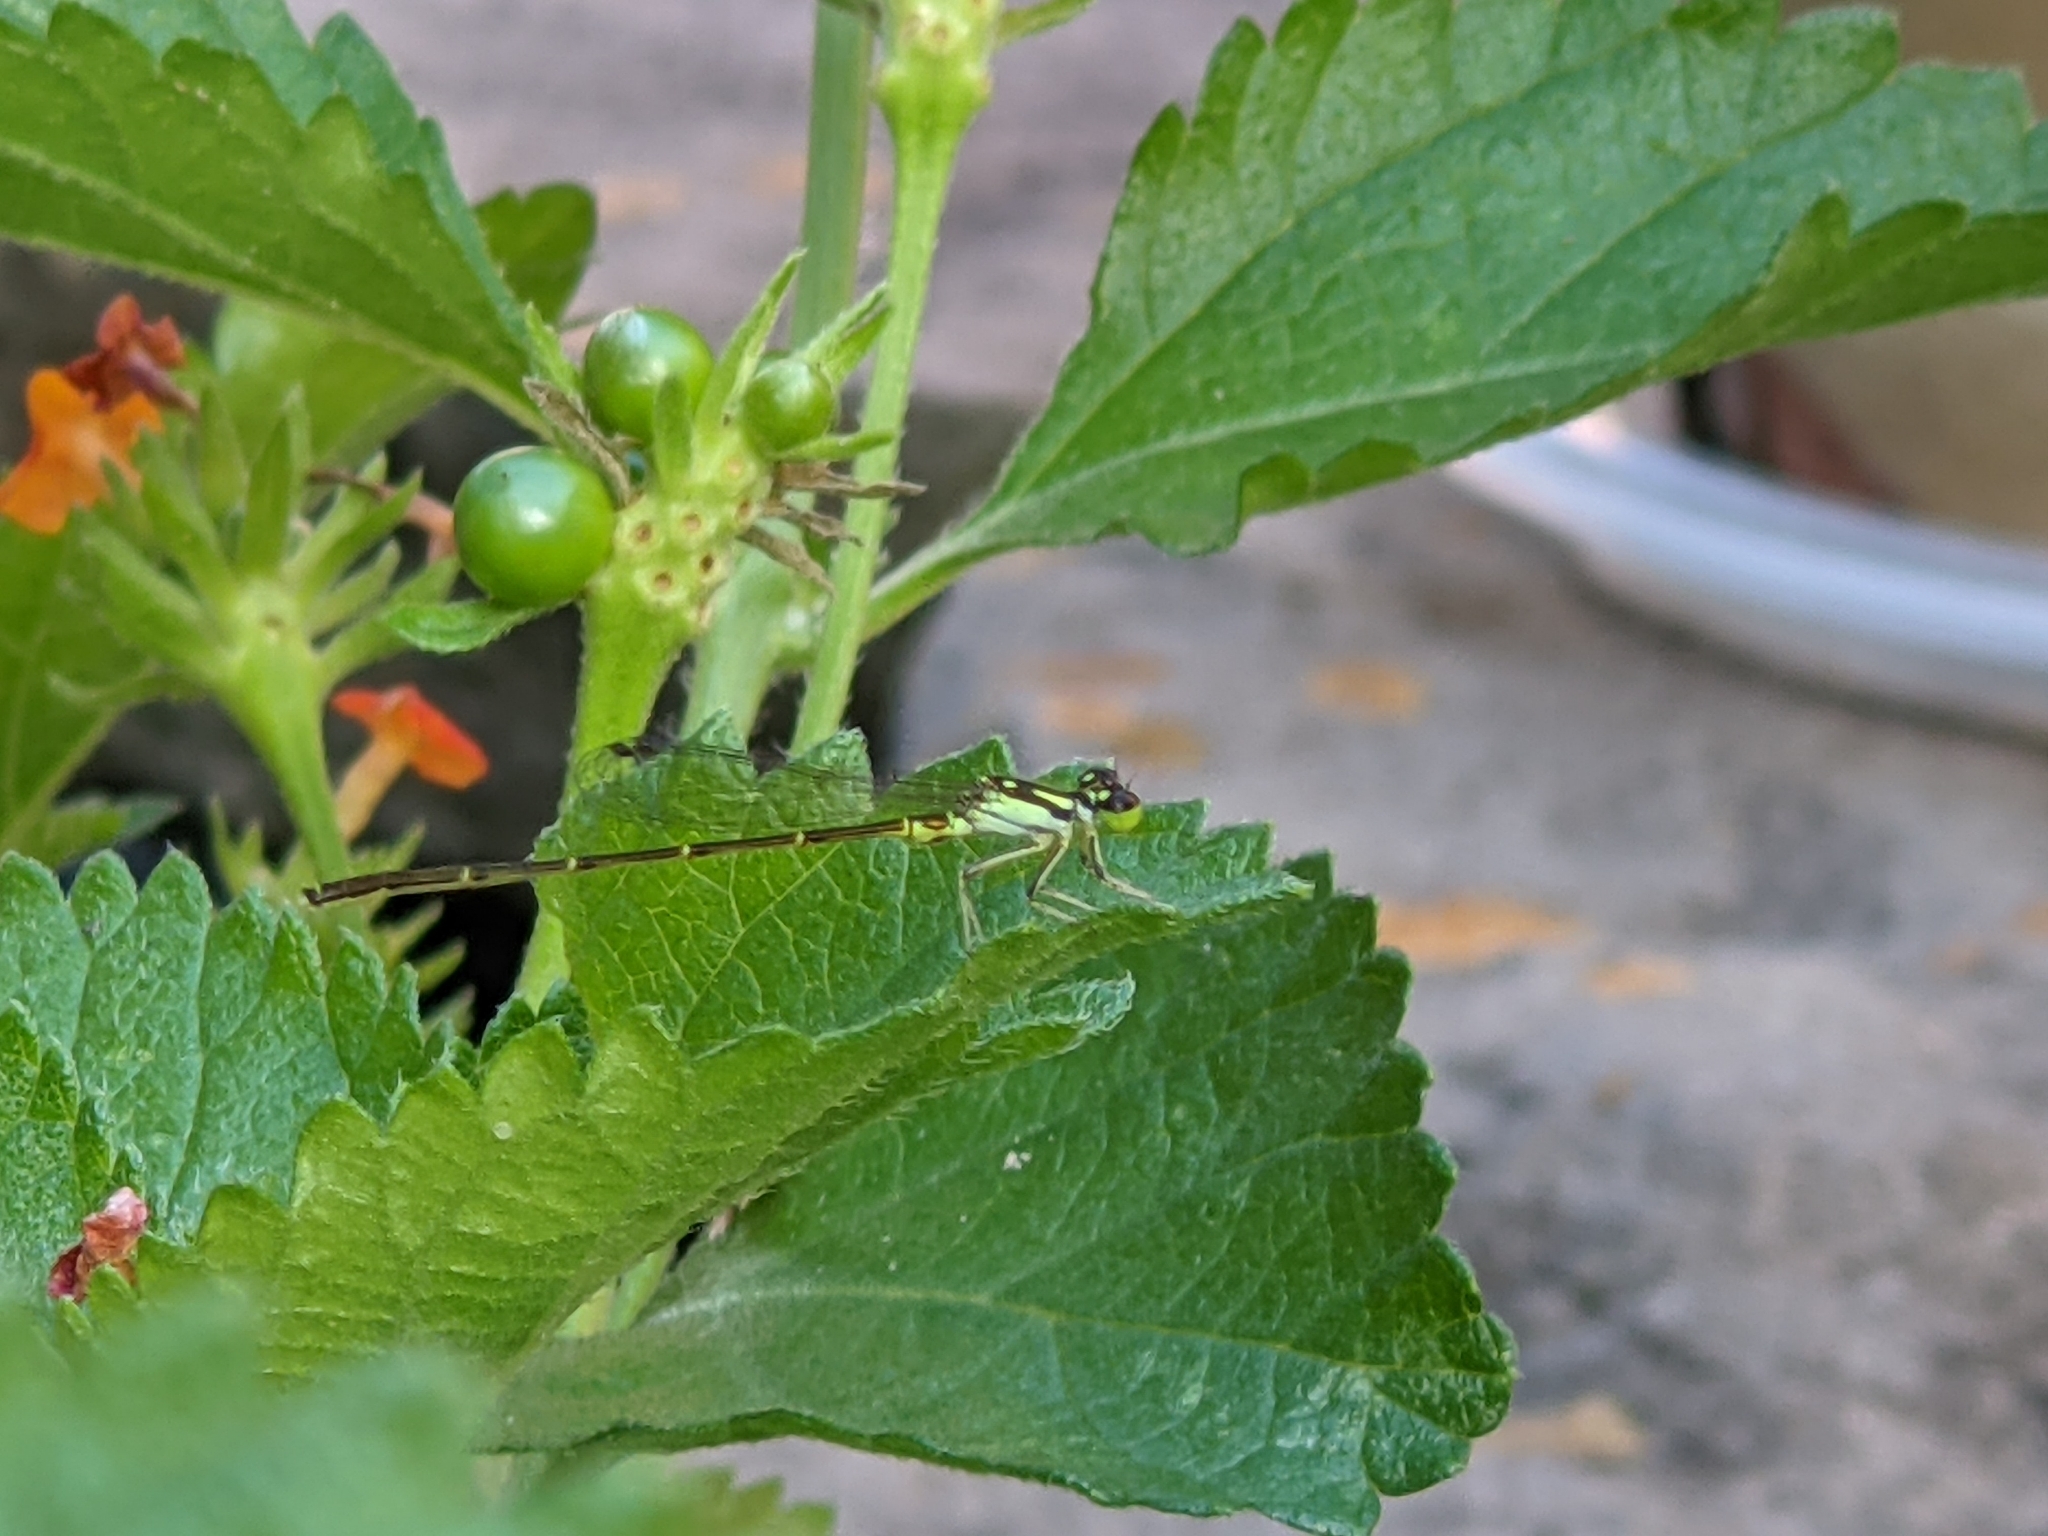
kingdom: Animalia
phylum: Arthropoda
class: Insecta
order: Odonata
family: Coenagrionidae
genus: Ischnura
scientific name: Ischnura posita
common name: Fragile forktail
